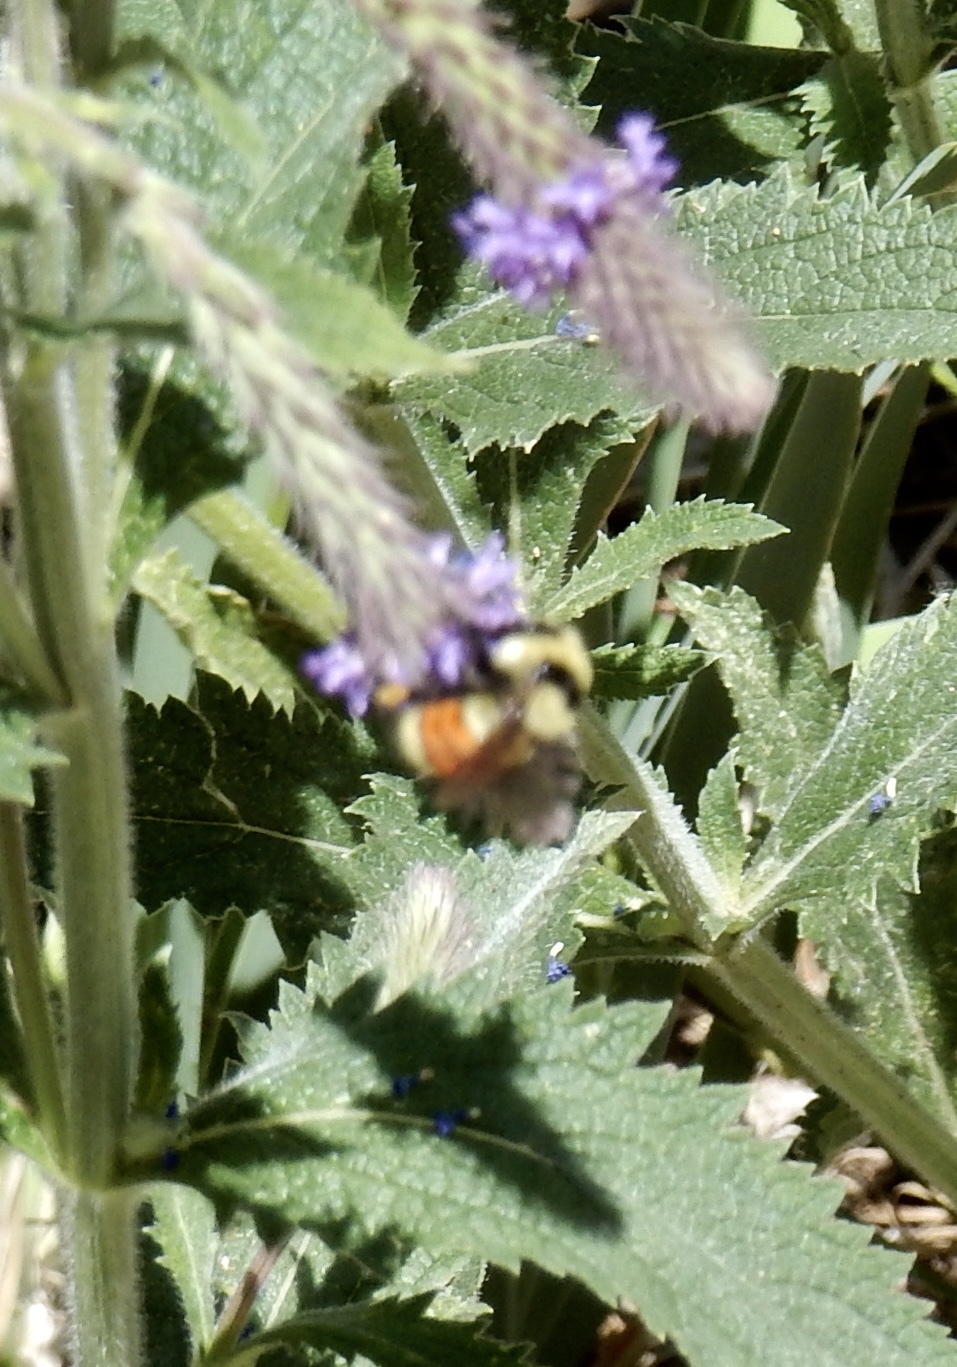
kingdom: Animalia
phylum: Arthropoda
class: Insecta
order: Hymenoptera
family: Apidae
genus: Bombus
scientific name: Bombus huntii
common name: Hunt bumble bee
